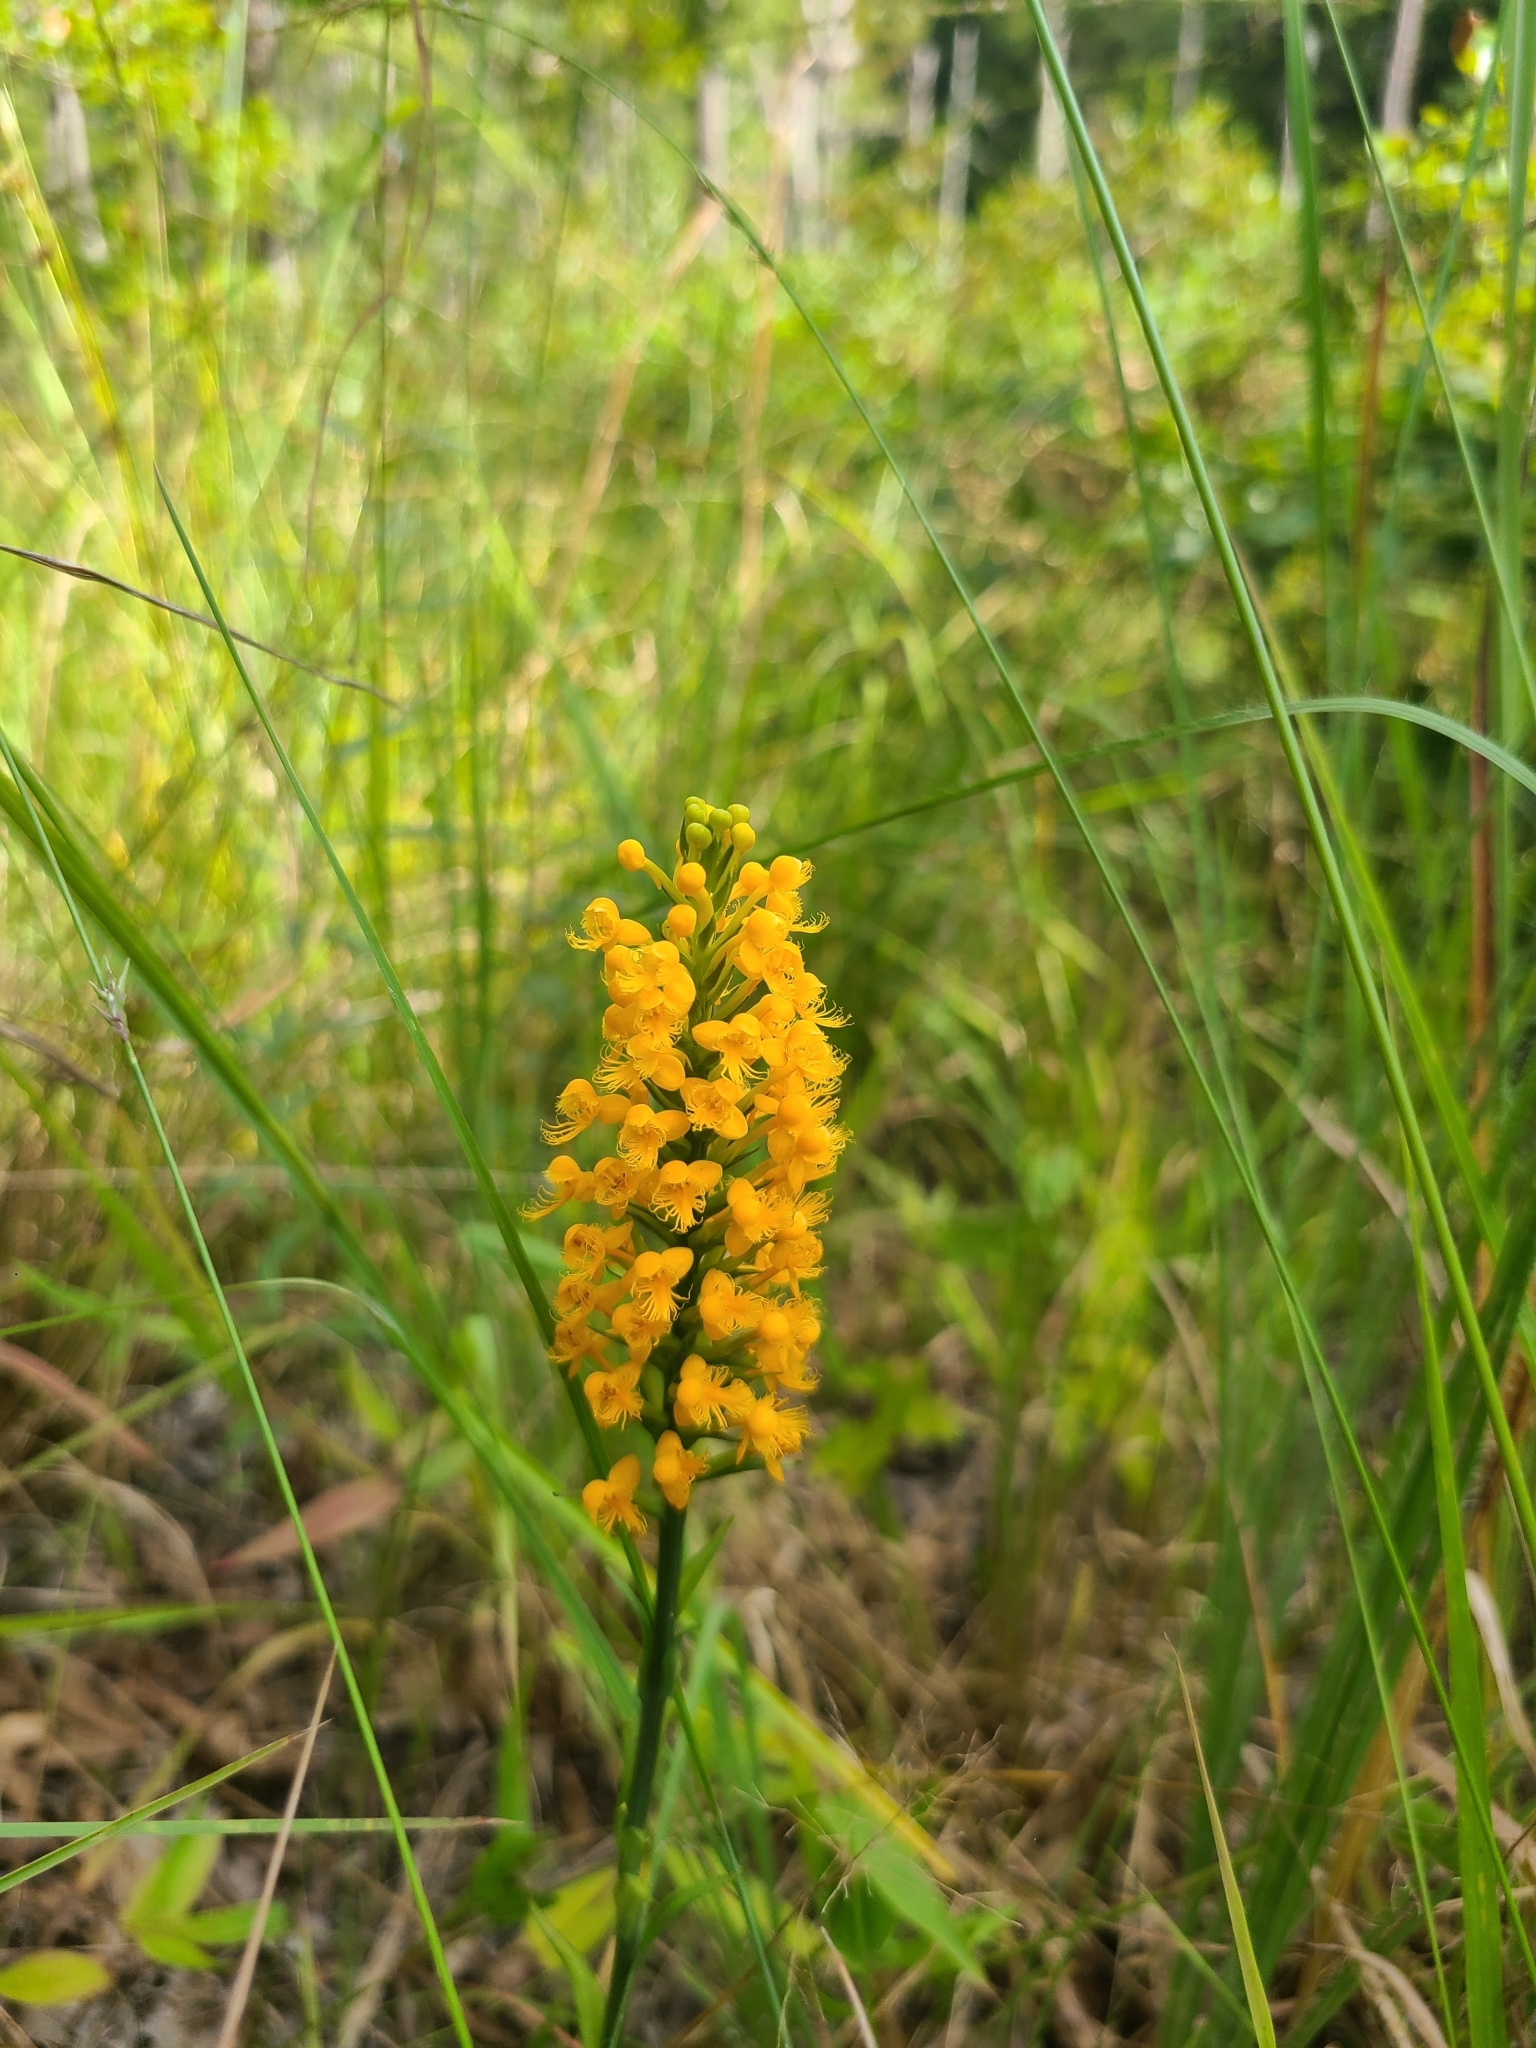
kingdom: Plantae
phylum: Tracheophyta
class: Liliopsida
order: Asparagales
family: Orchidaceae
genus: Platanthera
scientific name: Platanthera cristata
